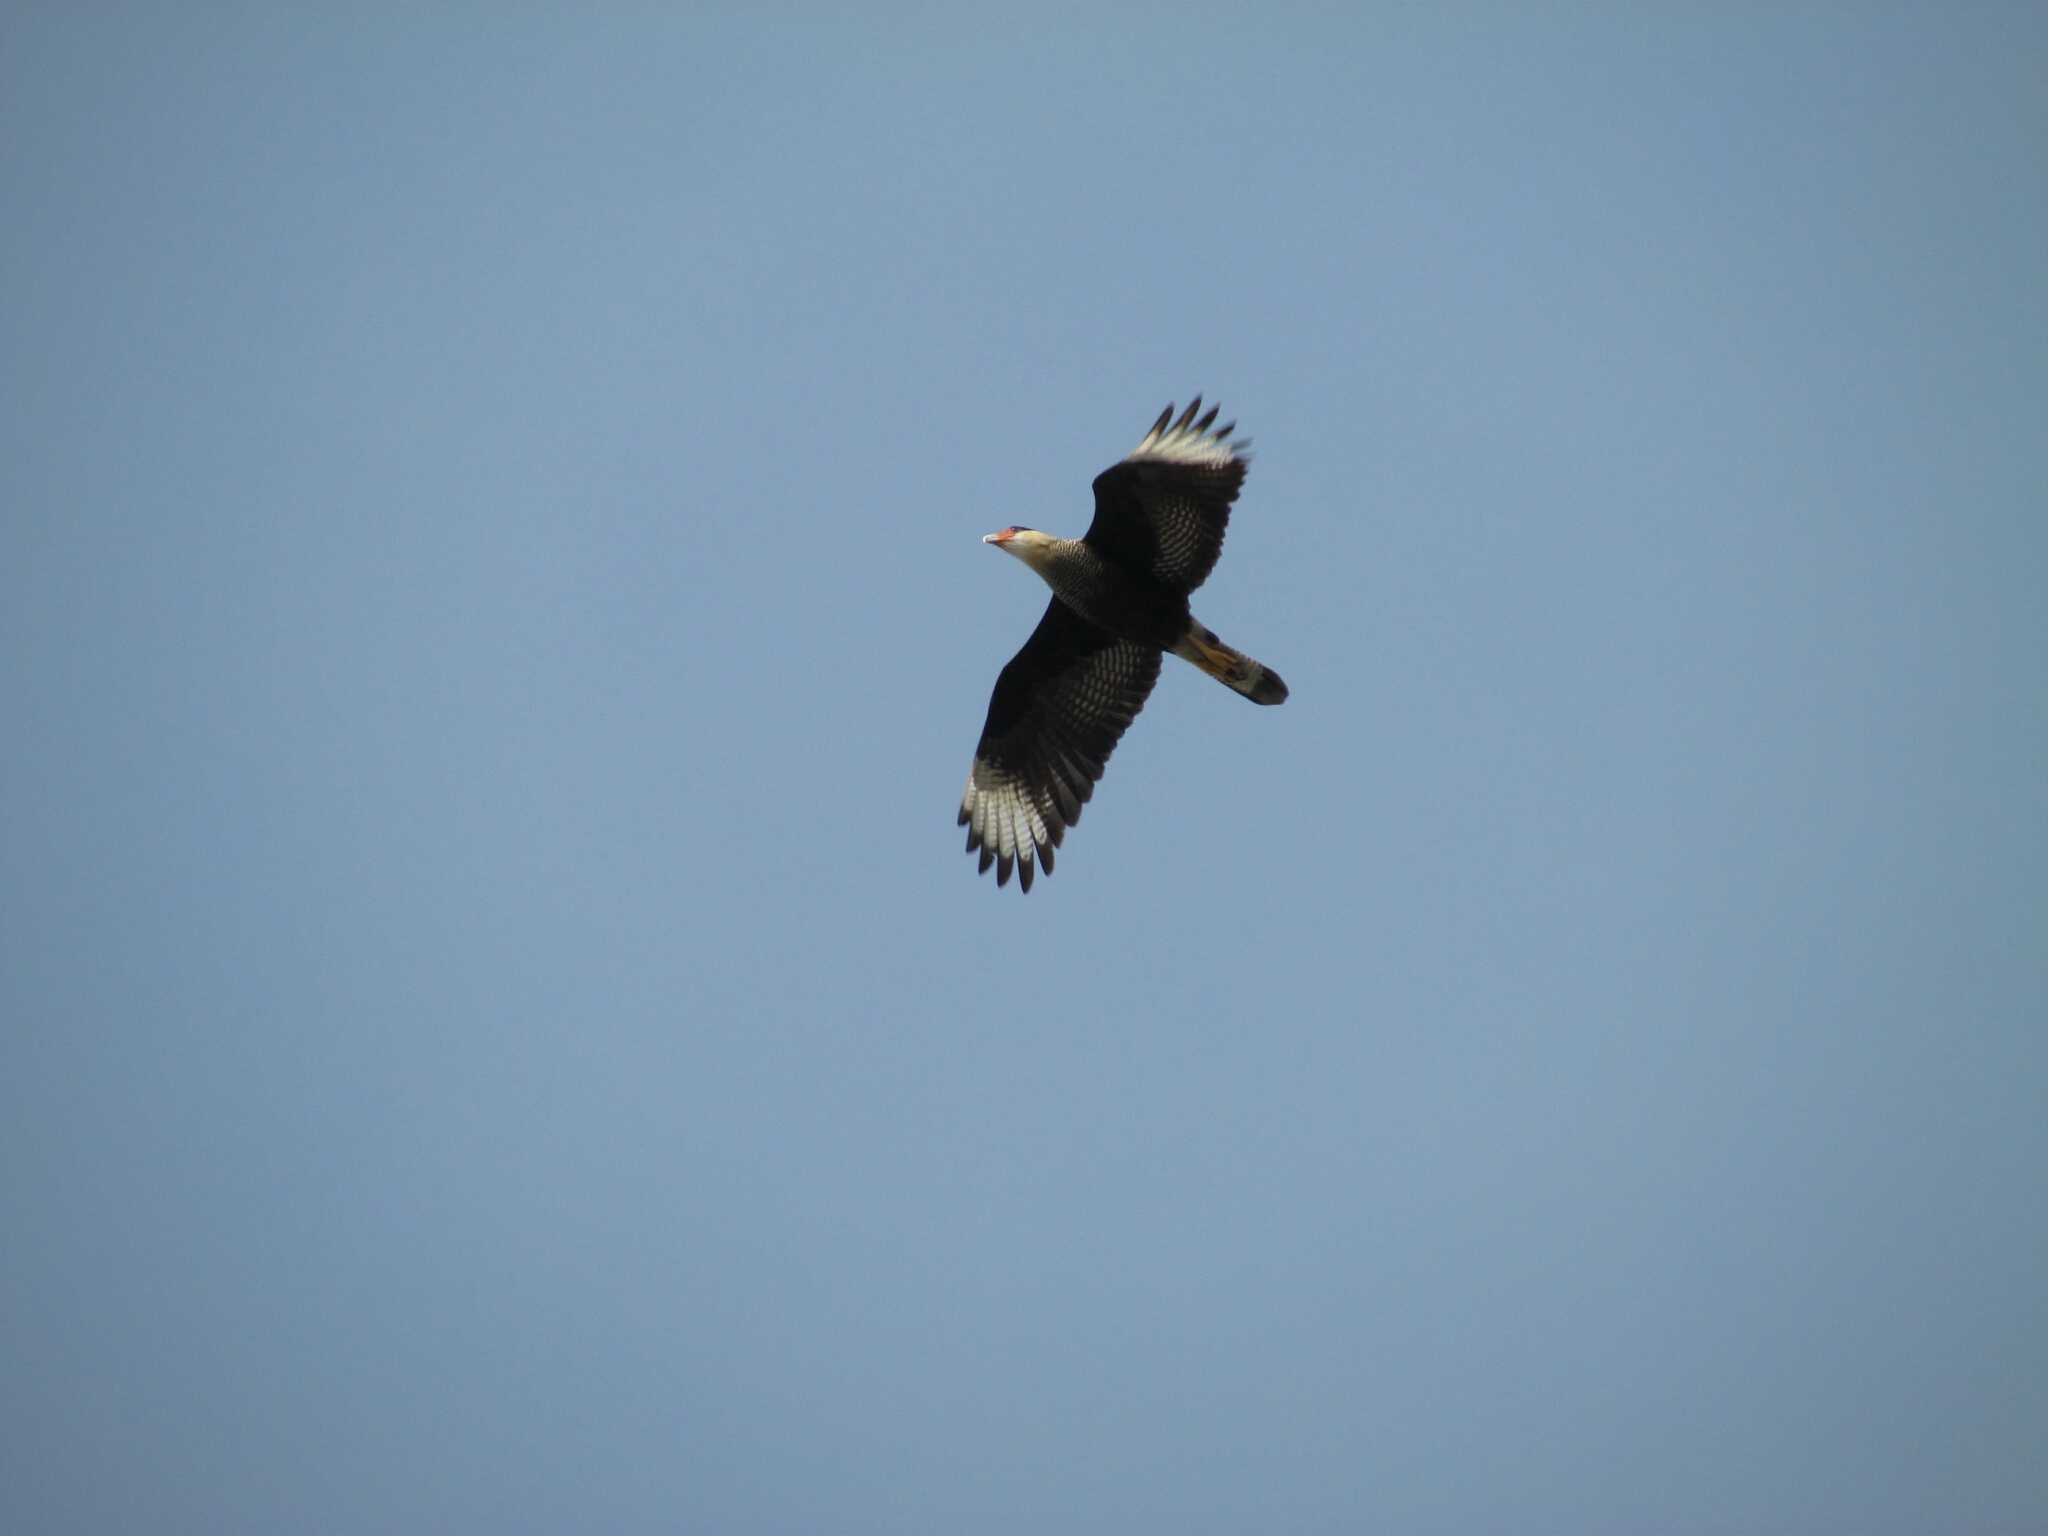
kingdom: Animalia
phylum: Chordata
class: Aves
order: Falconiformes
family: Falconidae
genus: Caracara
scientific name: Caracara plancus
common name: Southern caracara
